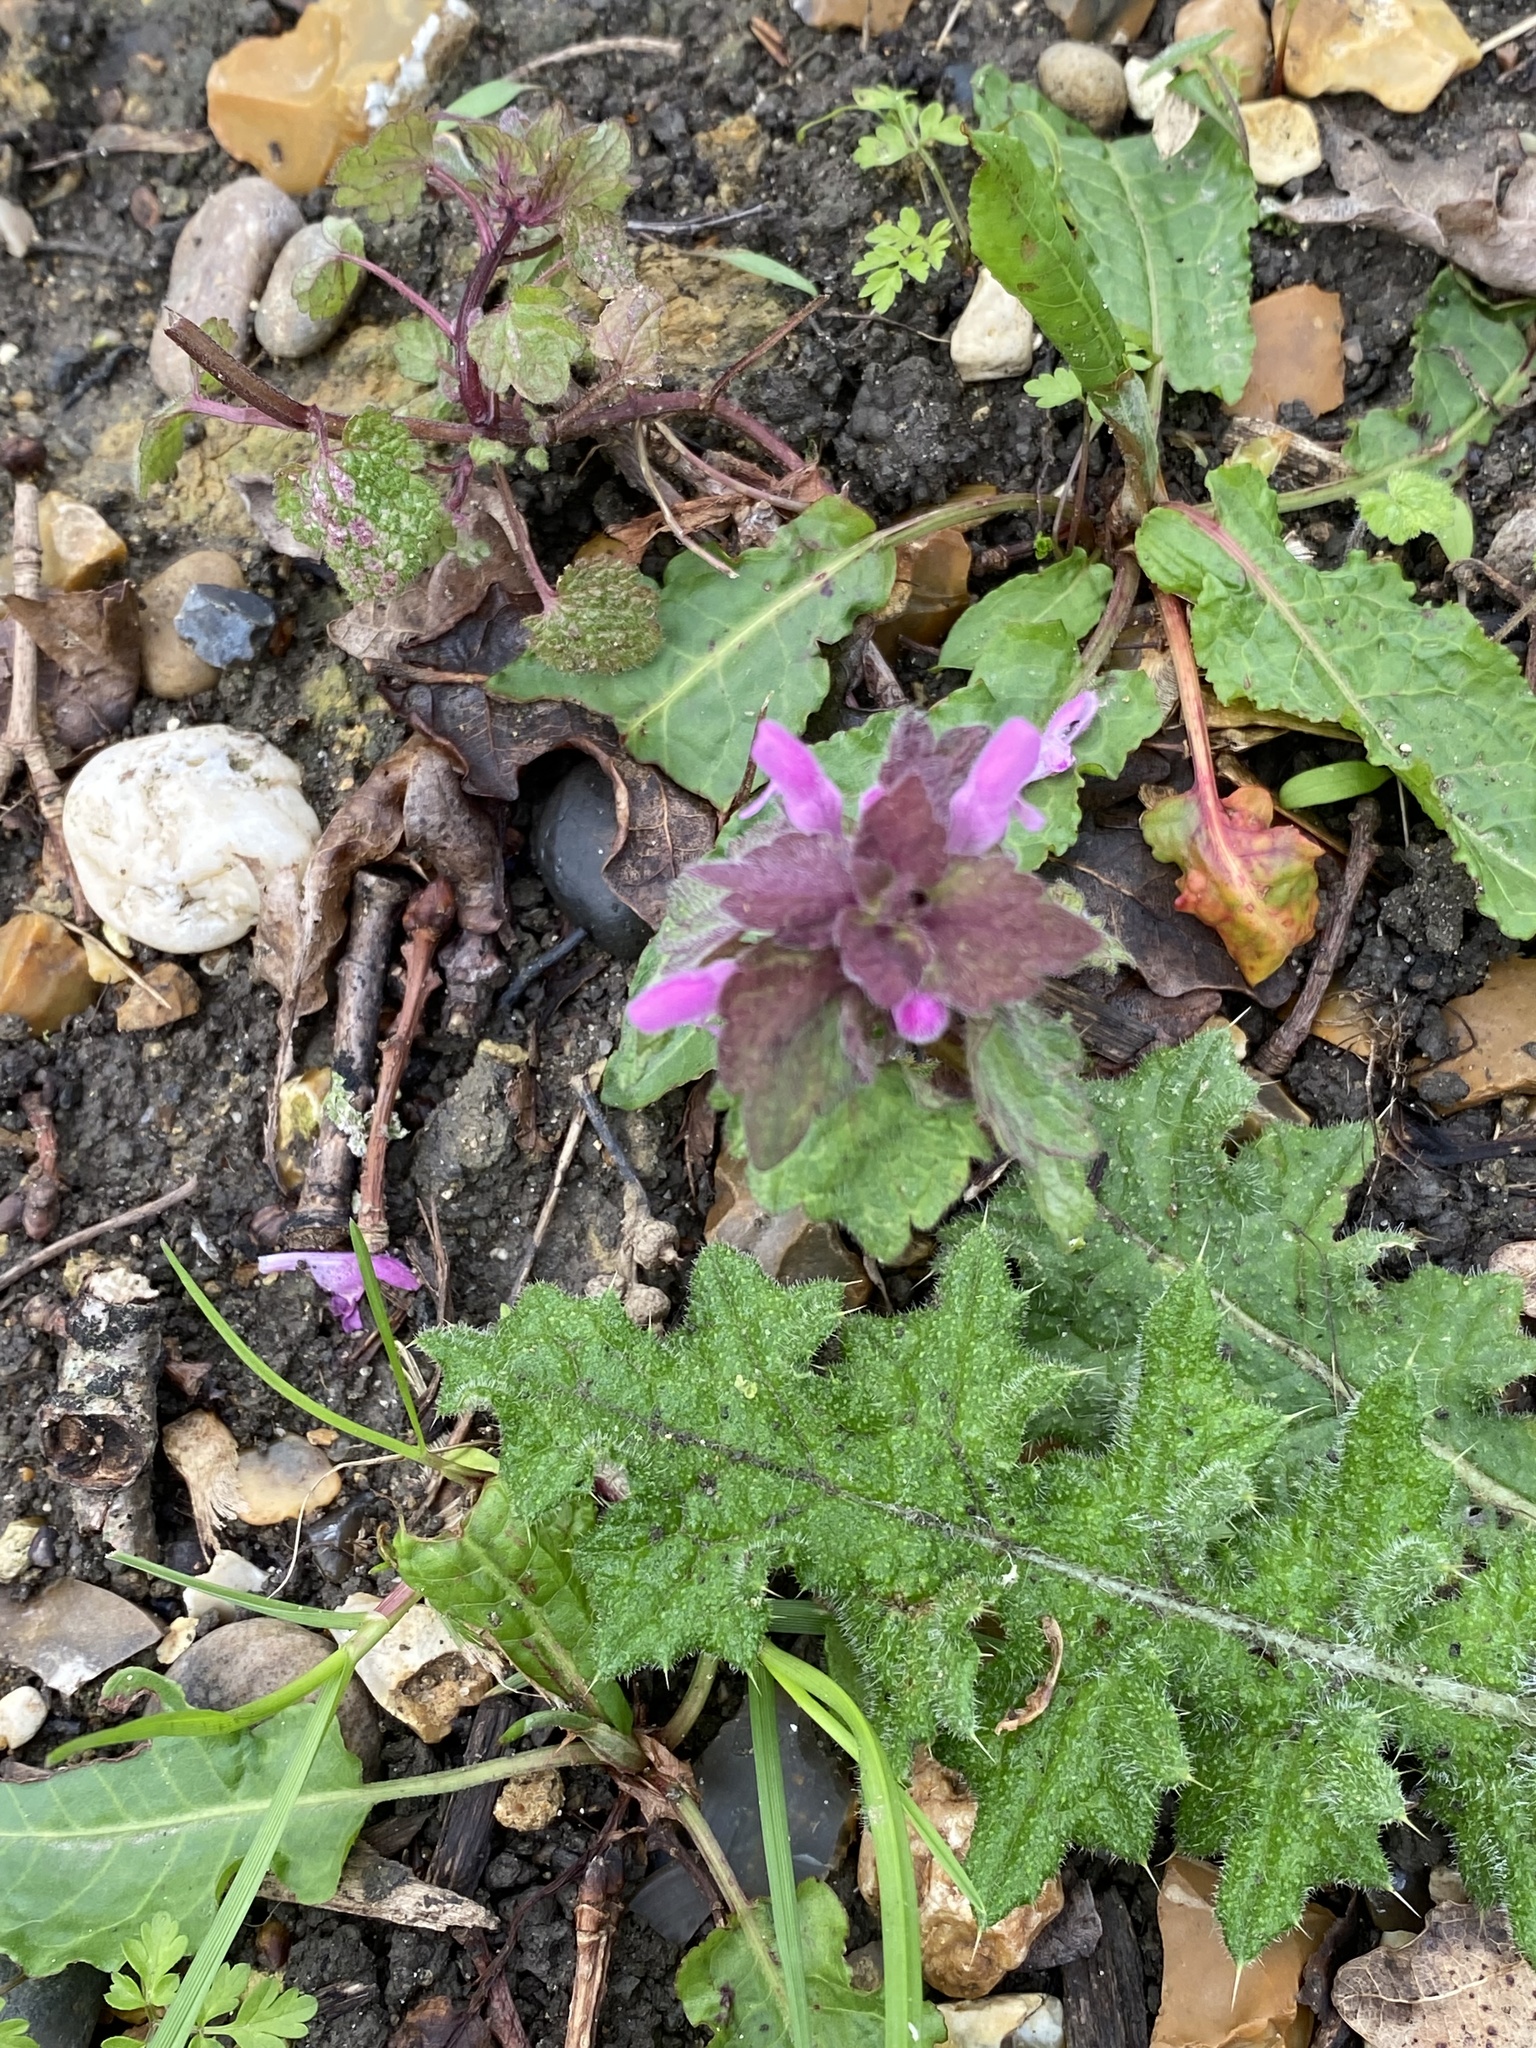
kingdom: Plantae
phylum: Tracheophyta
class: Magnoliopsida
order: Lamiales
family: Lamiaceae
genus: Lamium
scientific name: Lamium purpureum
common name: Red dead-nettle
